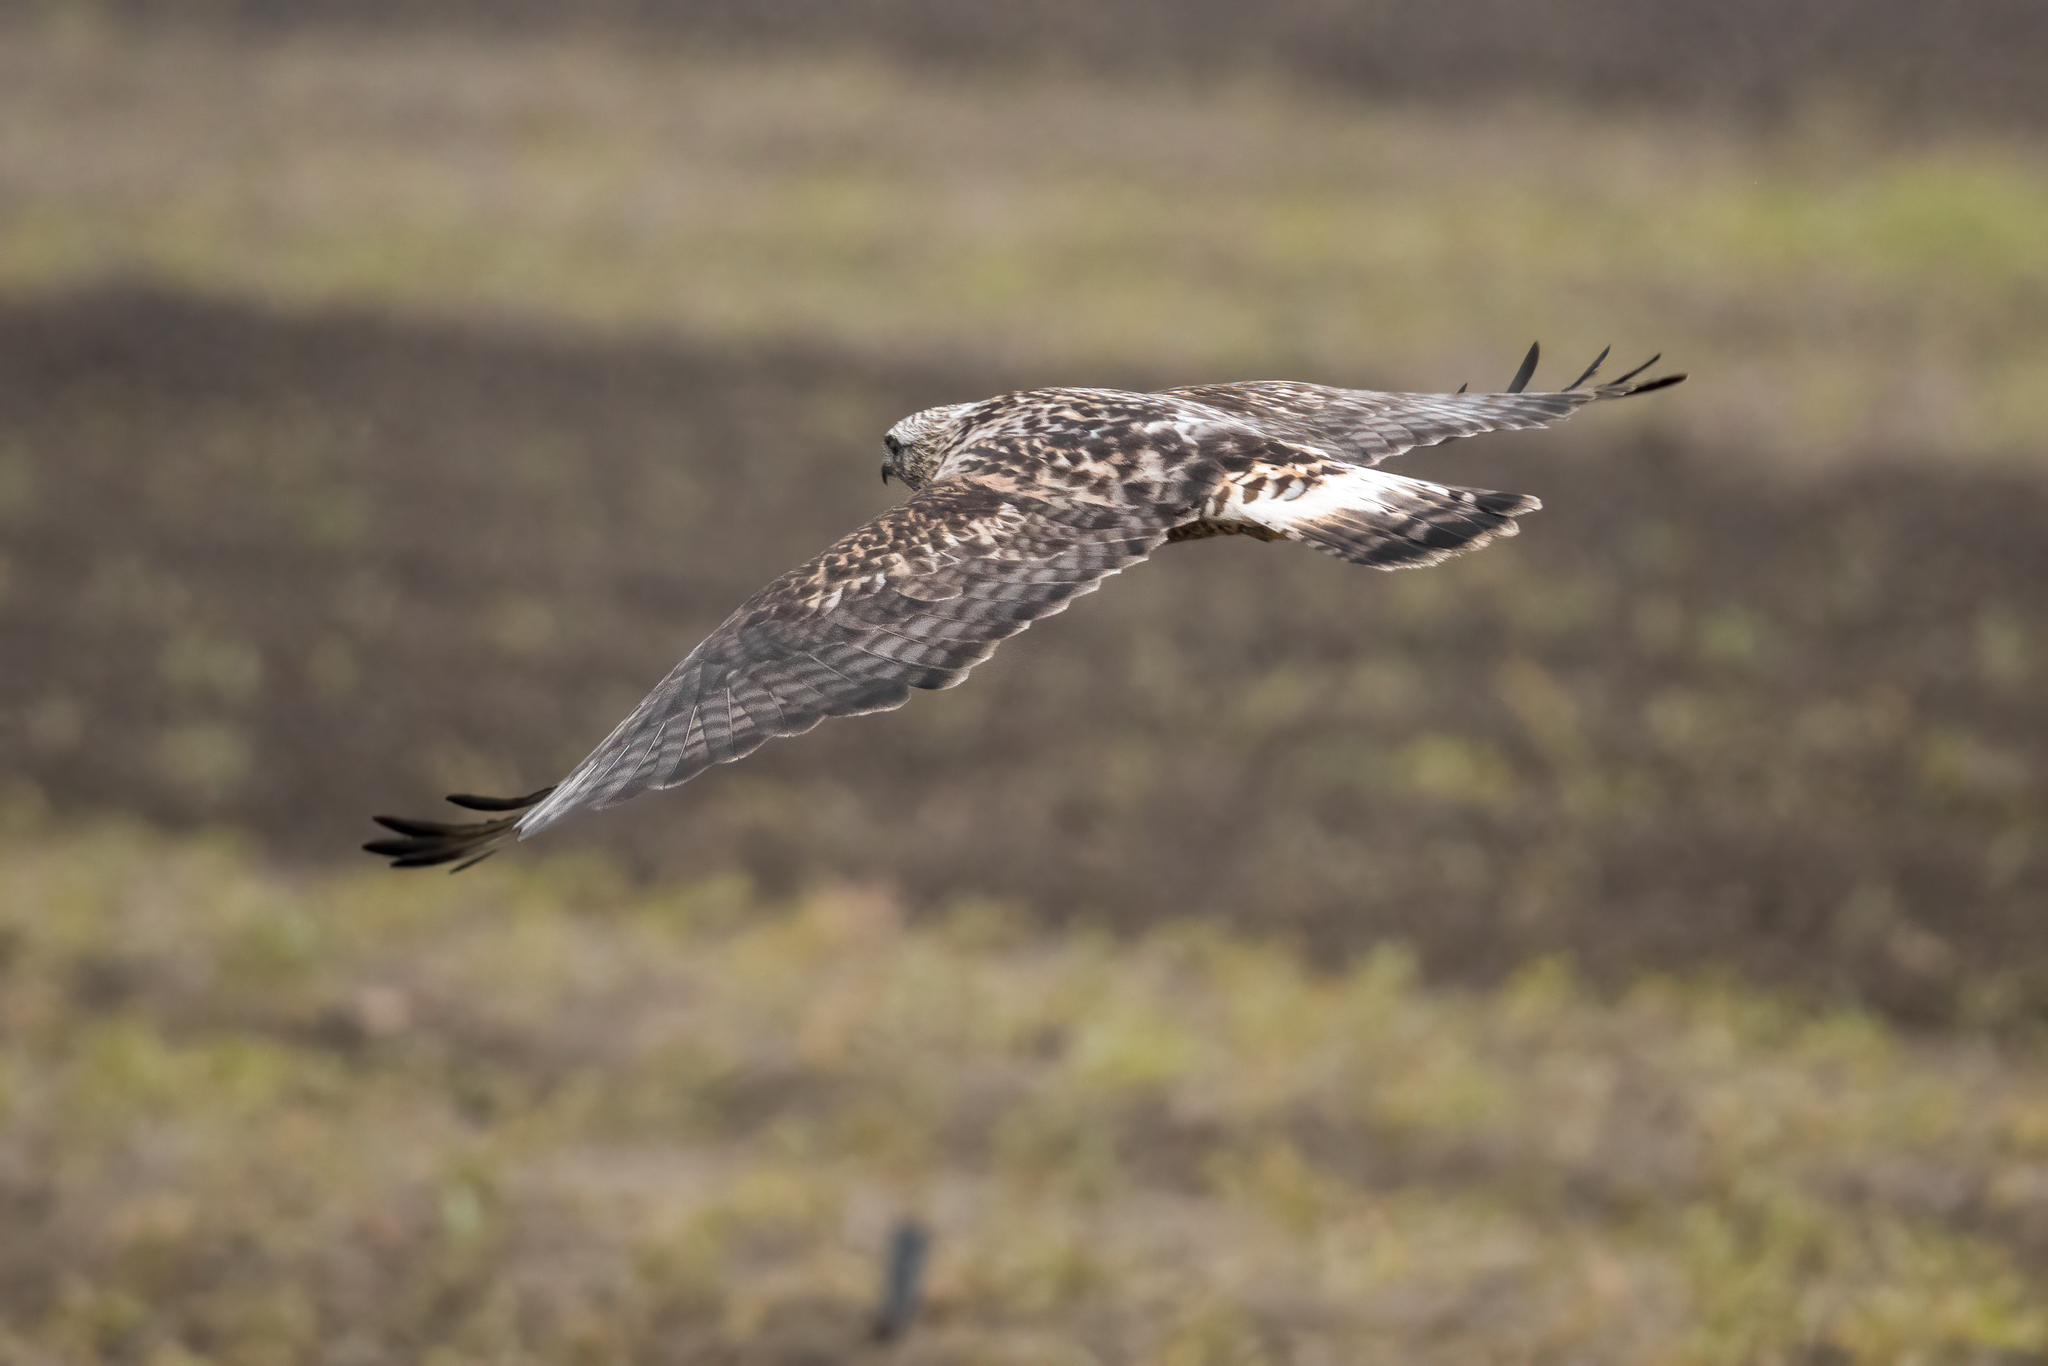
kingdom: Animalia
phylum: Chordata
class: Aves
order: Accipitriformes
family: Accipitridae
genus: Buteo
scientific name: Buteo lagopus
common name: Rough-legged buzzard
